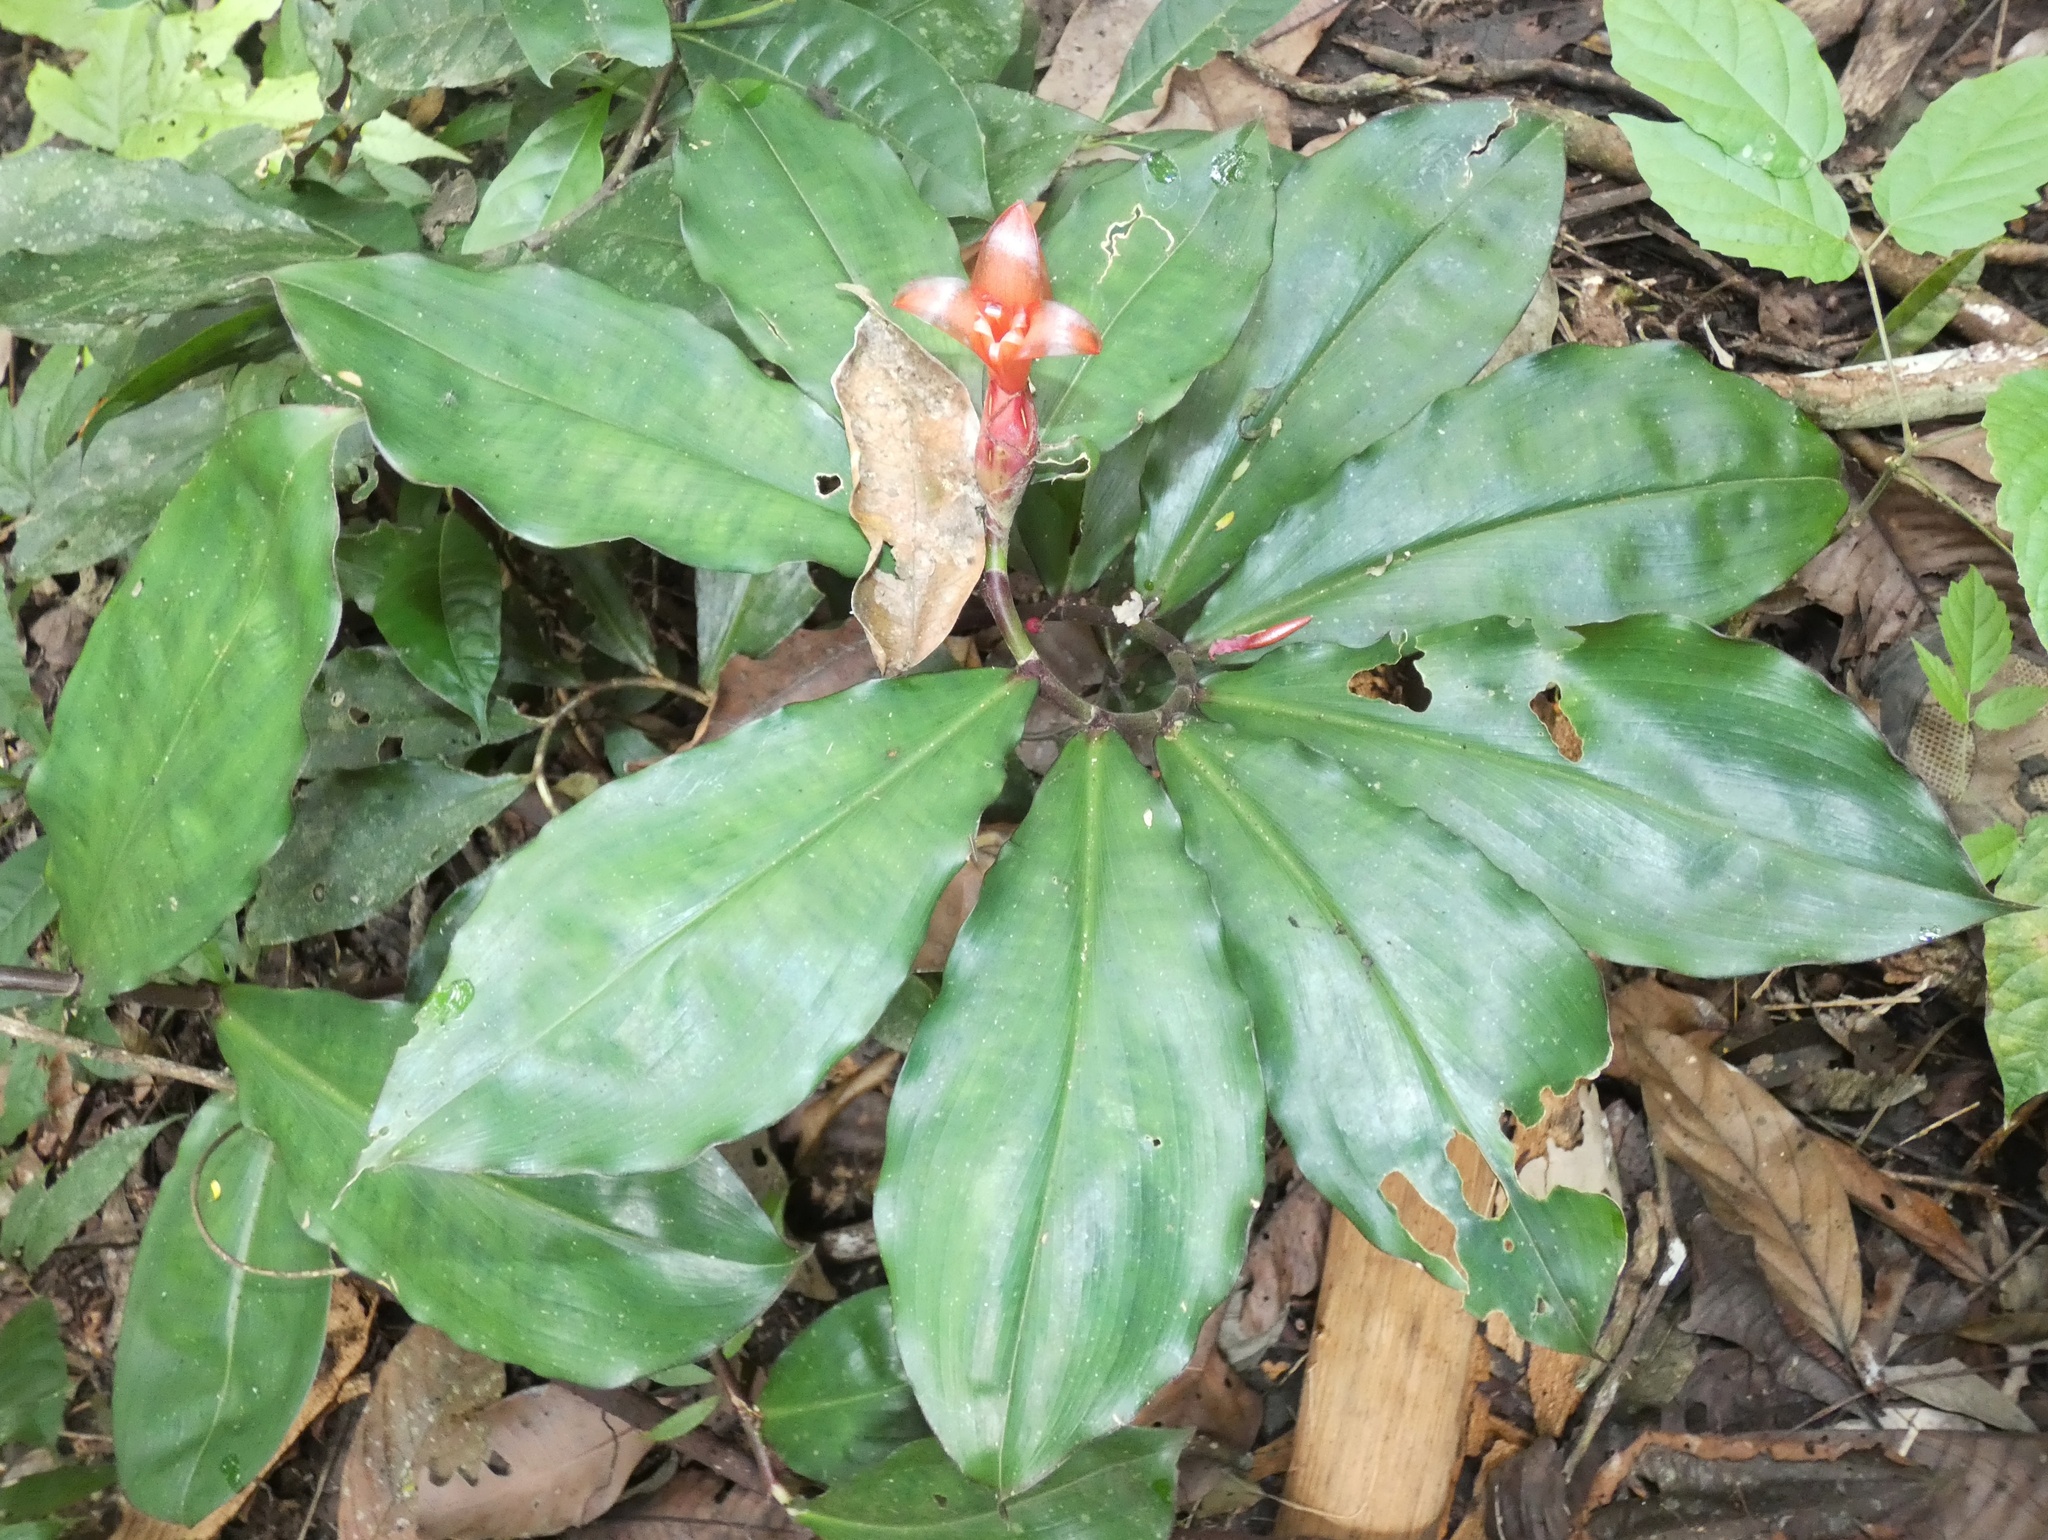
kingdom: Plantae
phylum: Tracheophyta
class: Liliopsida
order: Zingiberales
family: Costaceae
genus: Costus
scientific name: Costus pulverulentus
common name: Spiral ginger
